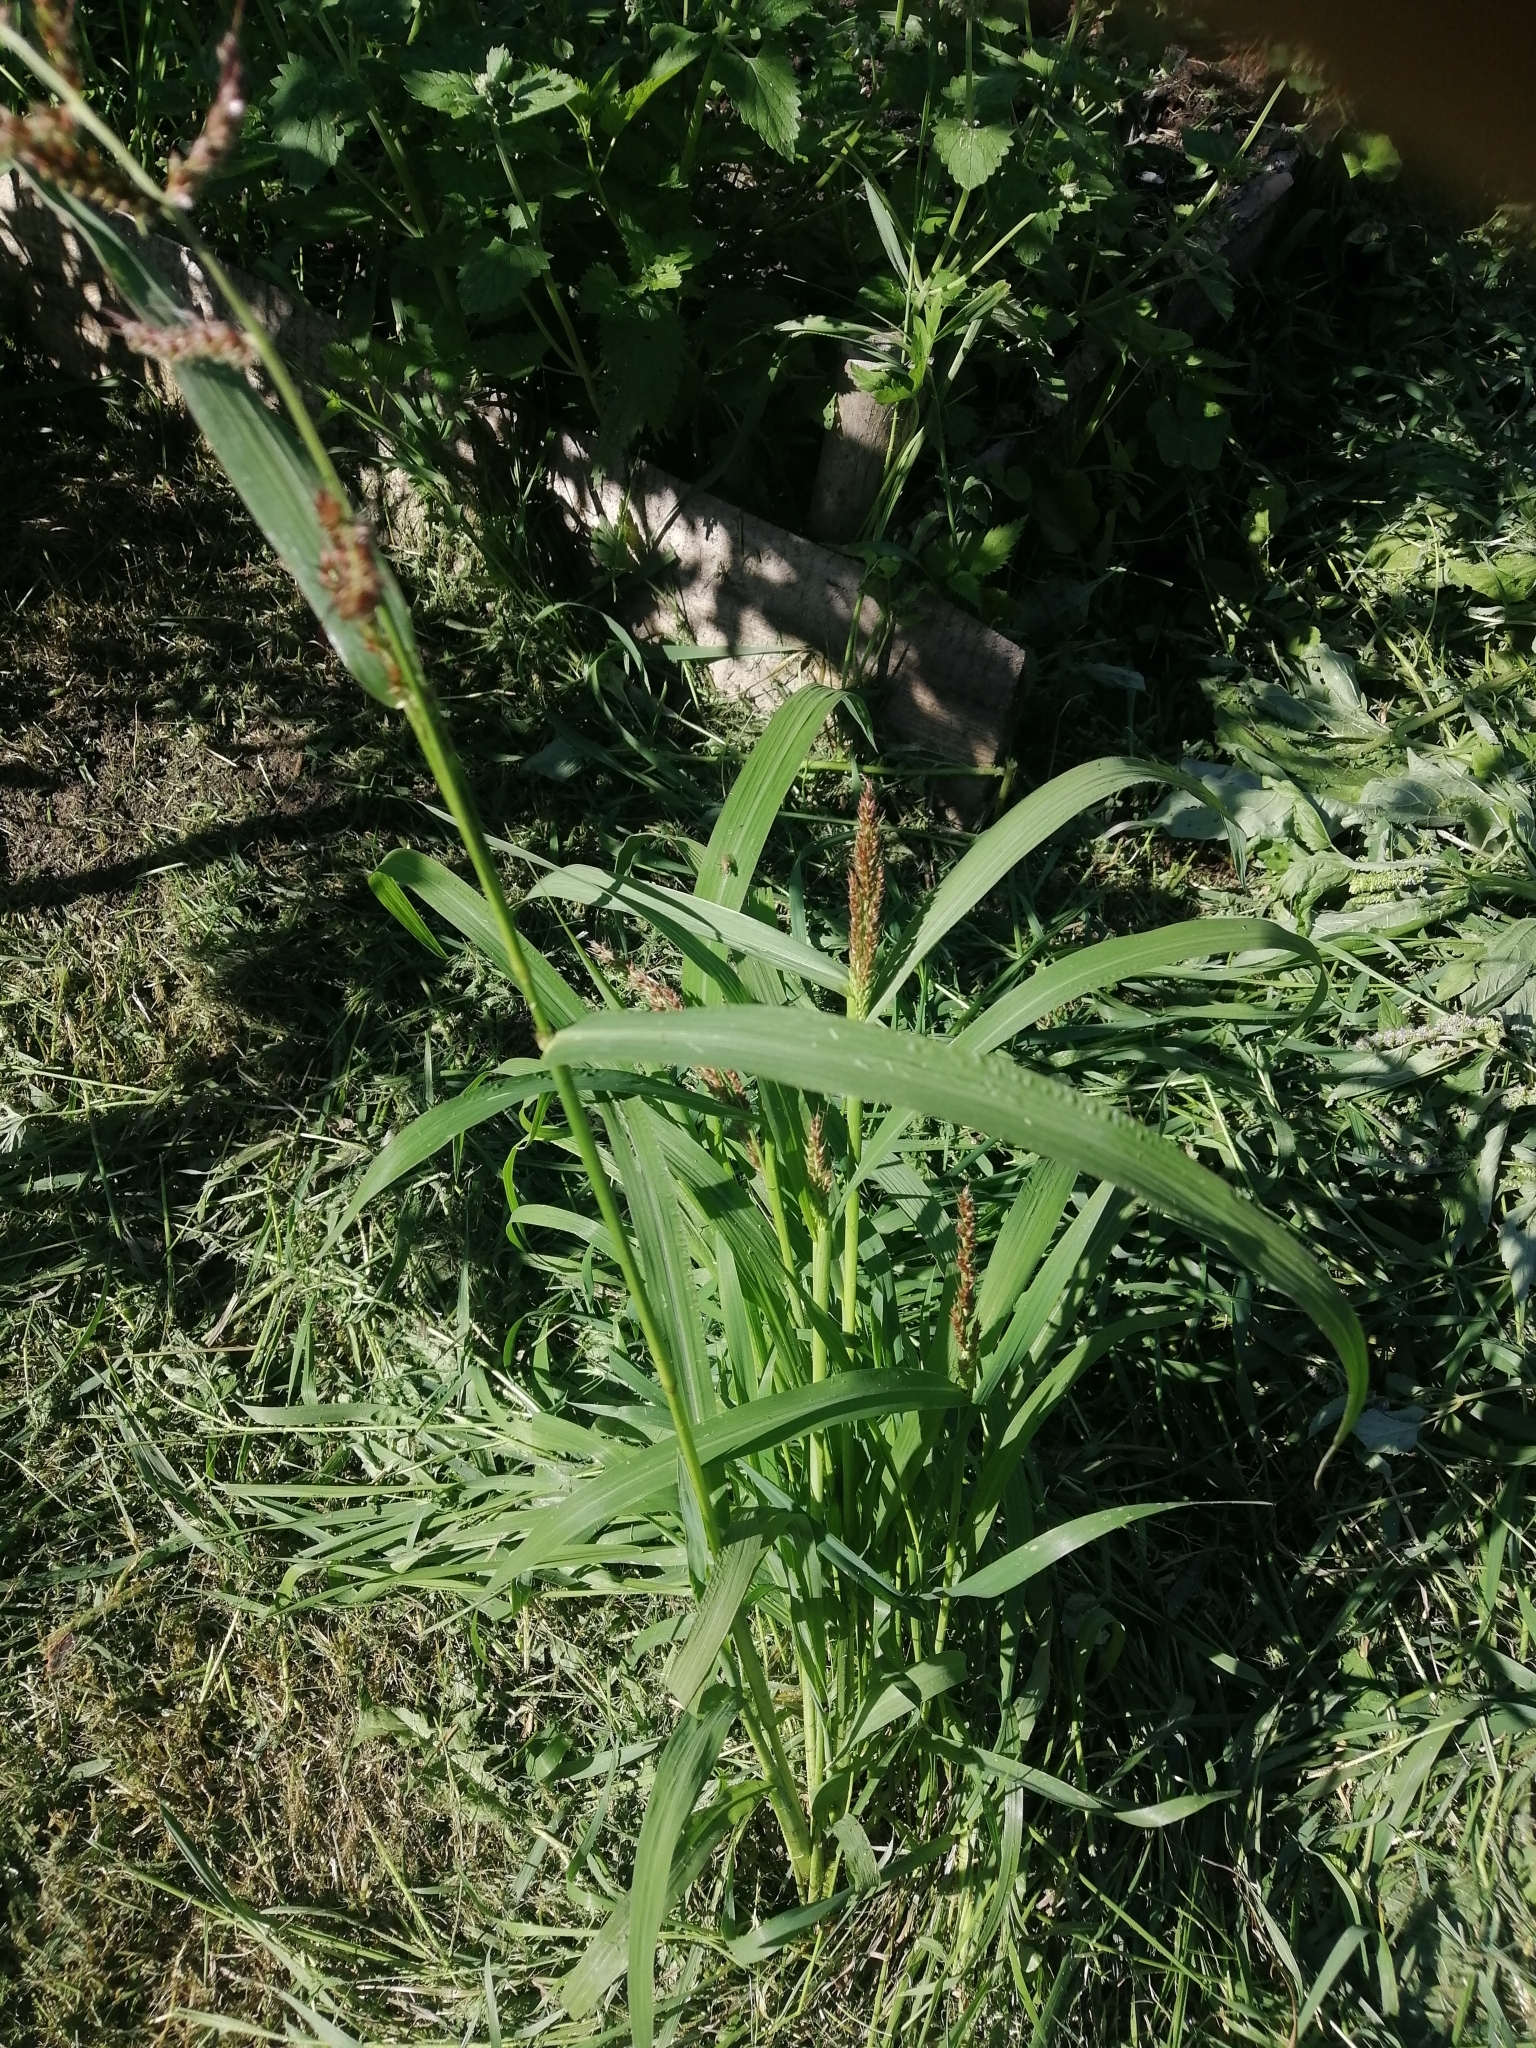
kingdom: Plantae
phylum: Tracheophyta
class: Liliopsida
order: Poales
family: Poaceae
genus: Echinochloa
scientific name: Echinochloa crus-galli
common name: Cockspur
